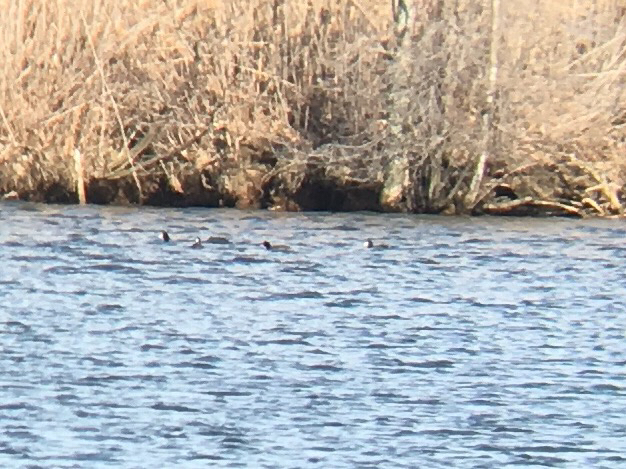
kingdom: Animalia
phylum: Chordata
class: Aves
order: Gruiformes
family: Rallidae
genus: Fulica
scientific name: Fulica americana
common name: American coot
